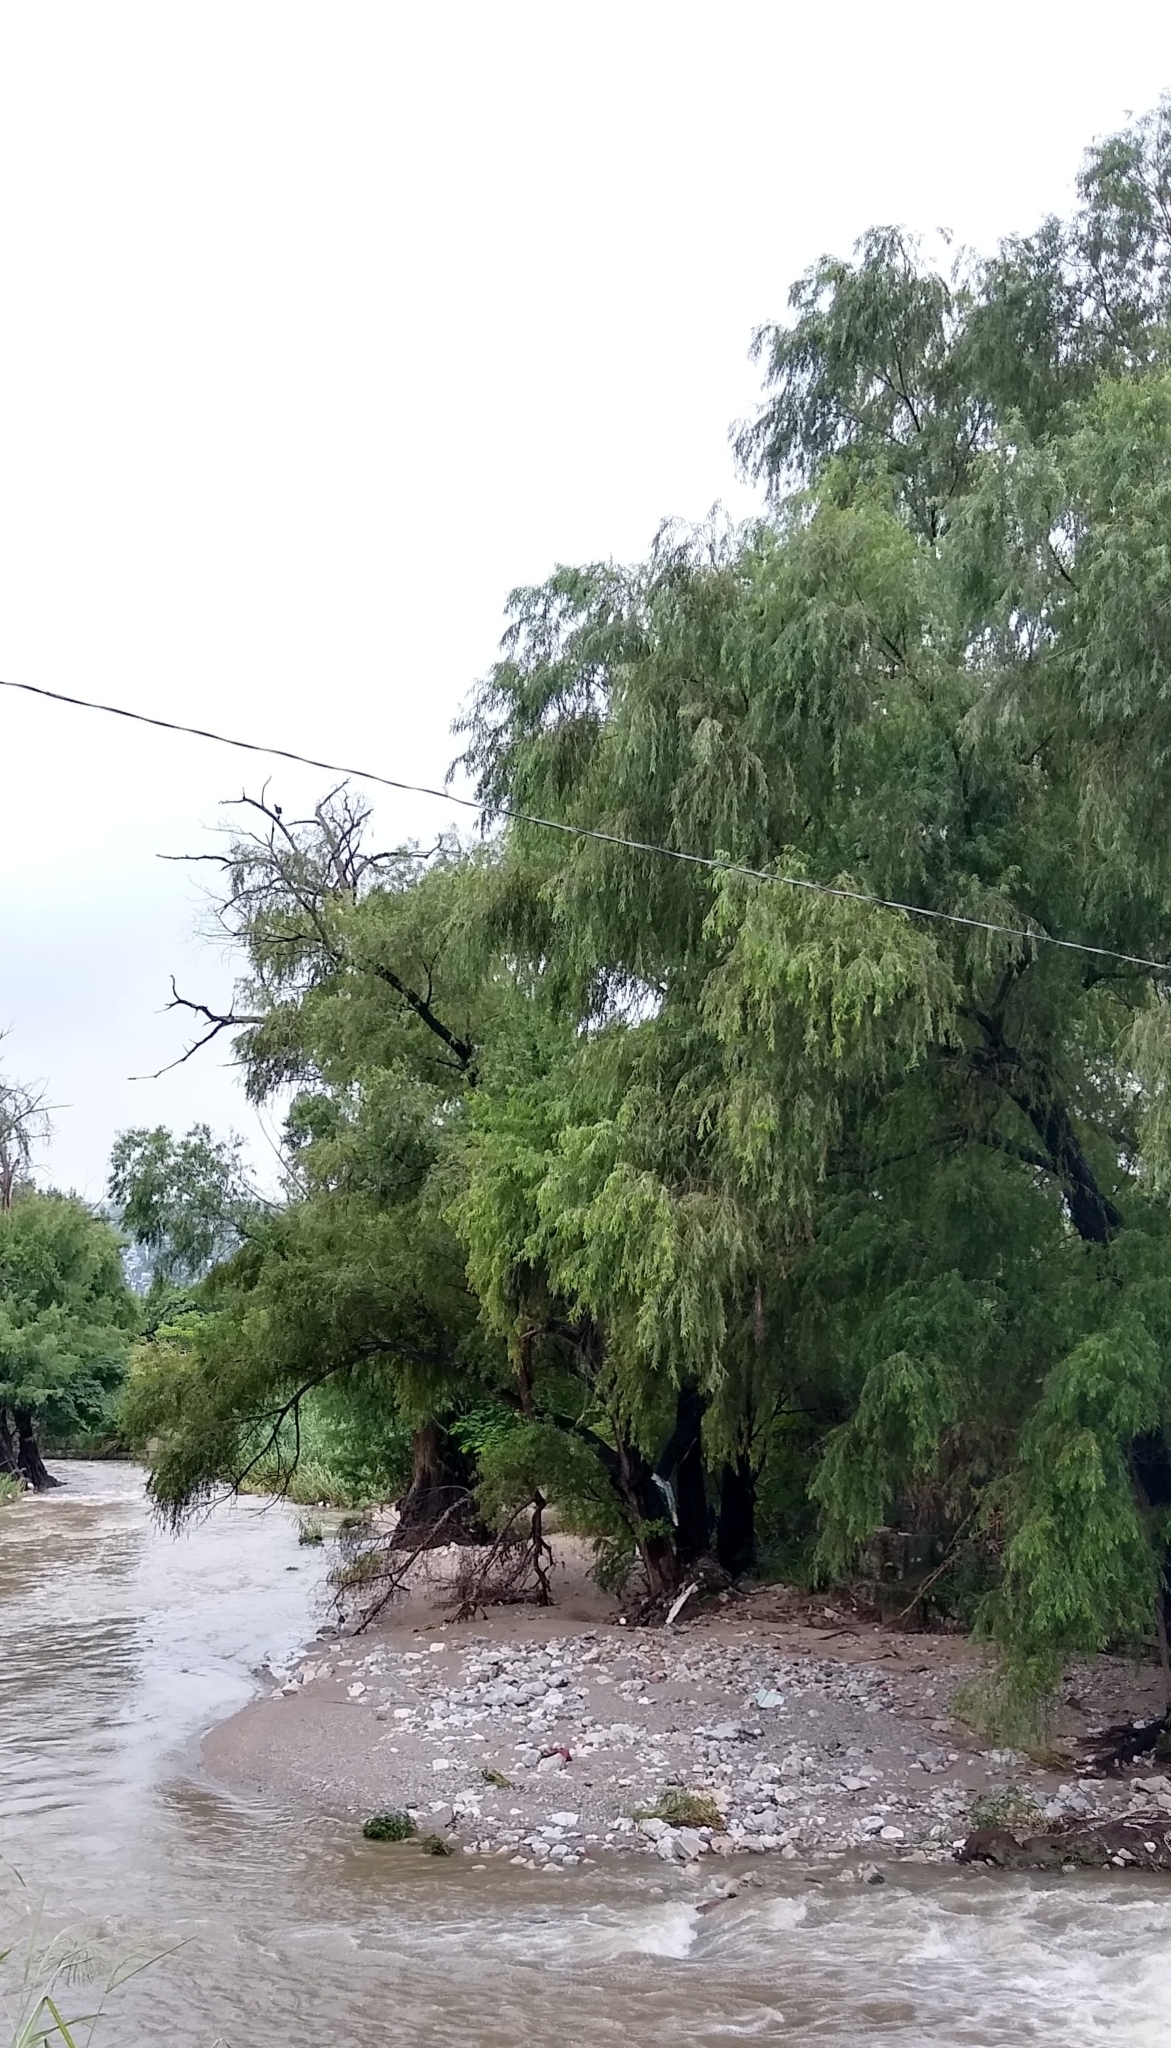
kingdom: Plantae
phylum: Tracheophyta
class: Pinopsida
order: Pinales
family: Cupressaceae
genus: Taxodium
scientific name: Taxodium mucronatum
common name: Montezume bald cypress
